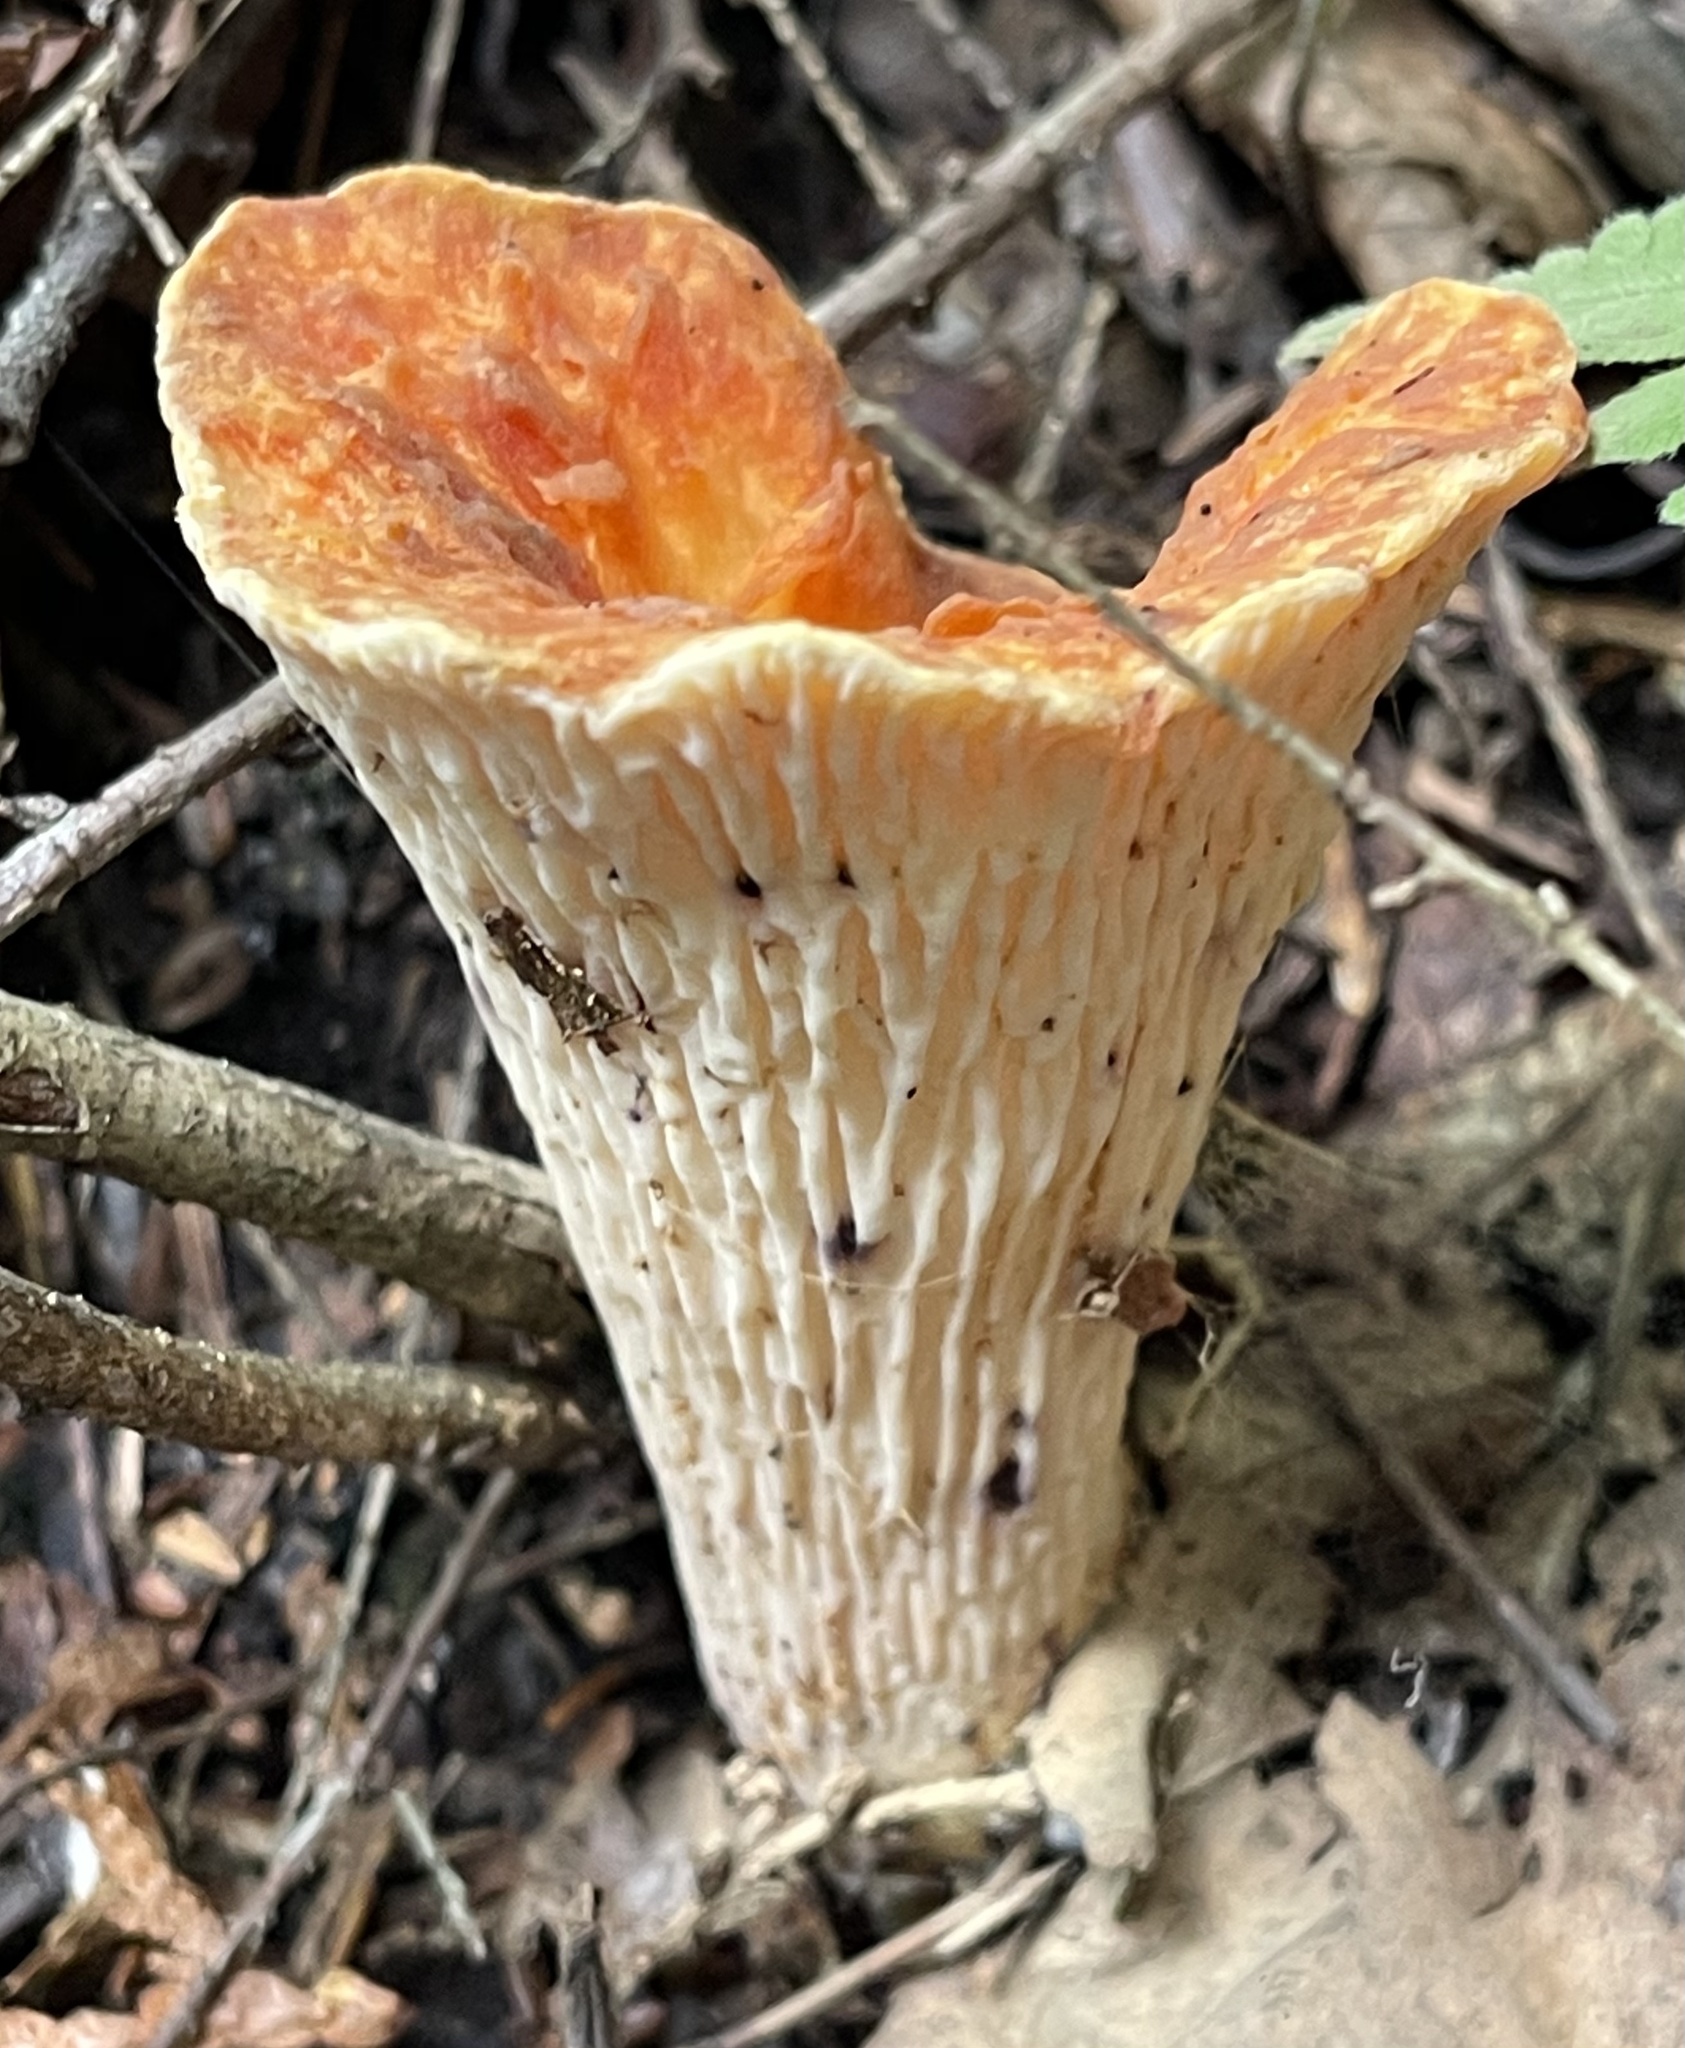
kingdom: Fungi
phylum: Basidiomycota
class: Agaricomycetes
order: Gomphales
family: Gomphaceae
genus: Turbinellus
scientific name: Turbinellus floccosus
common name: Scaly chanterelle
